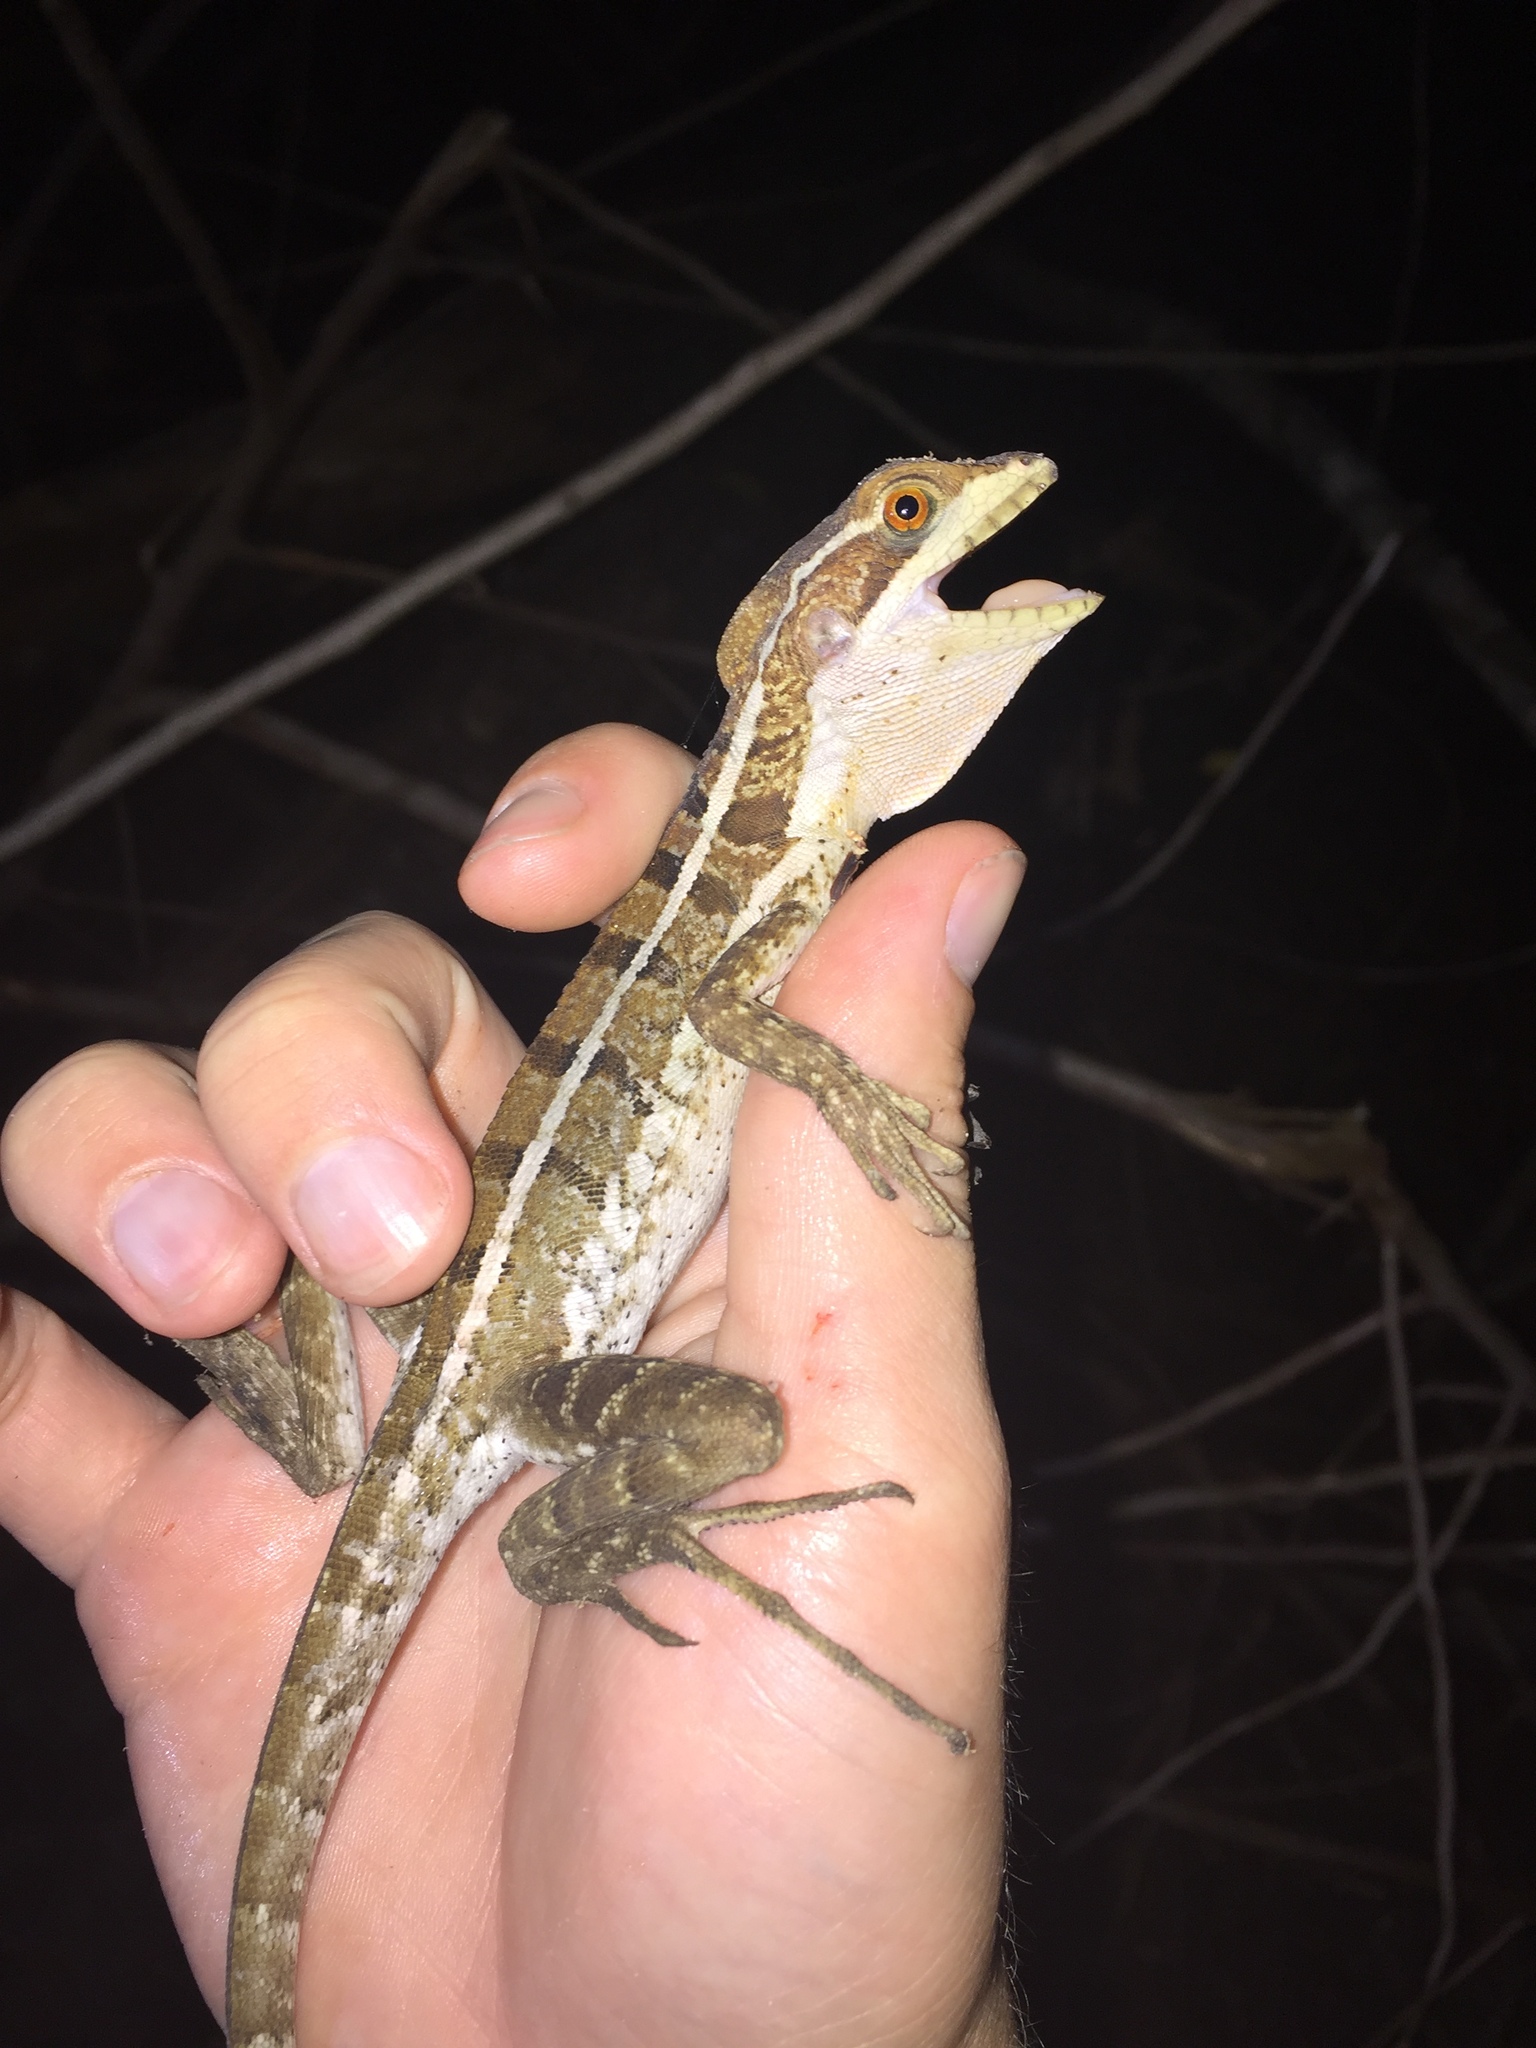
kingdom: Animalia
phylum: Chordata
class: Squamata
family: Corytophanidae
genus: Basiliscus
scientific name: Basiliscus vittatus
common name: Brown basilisk
